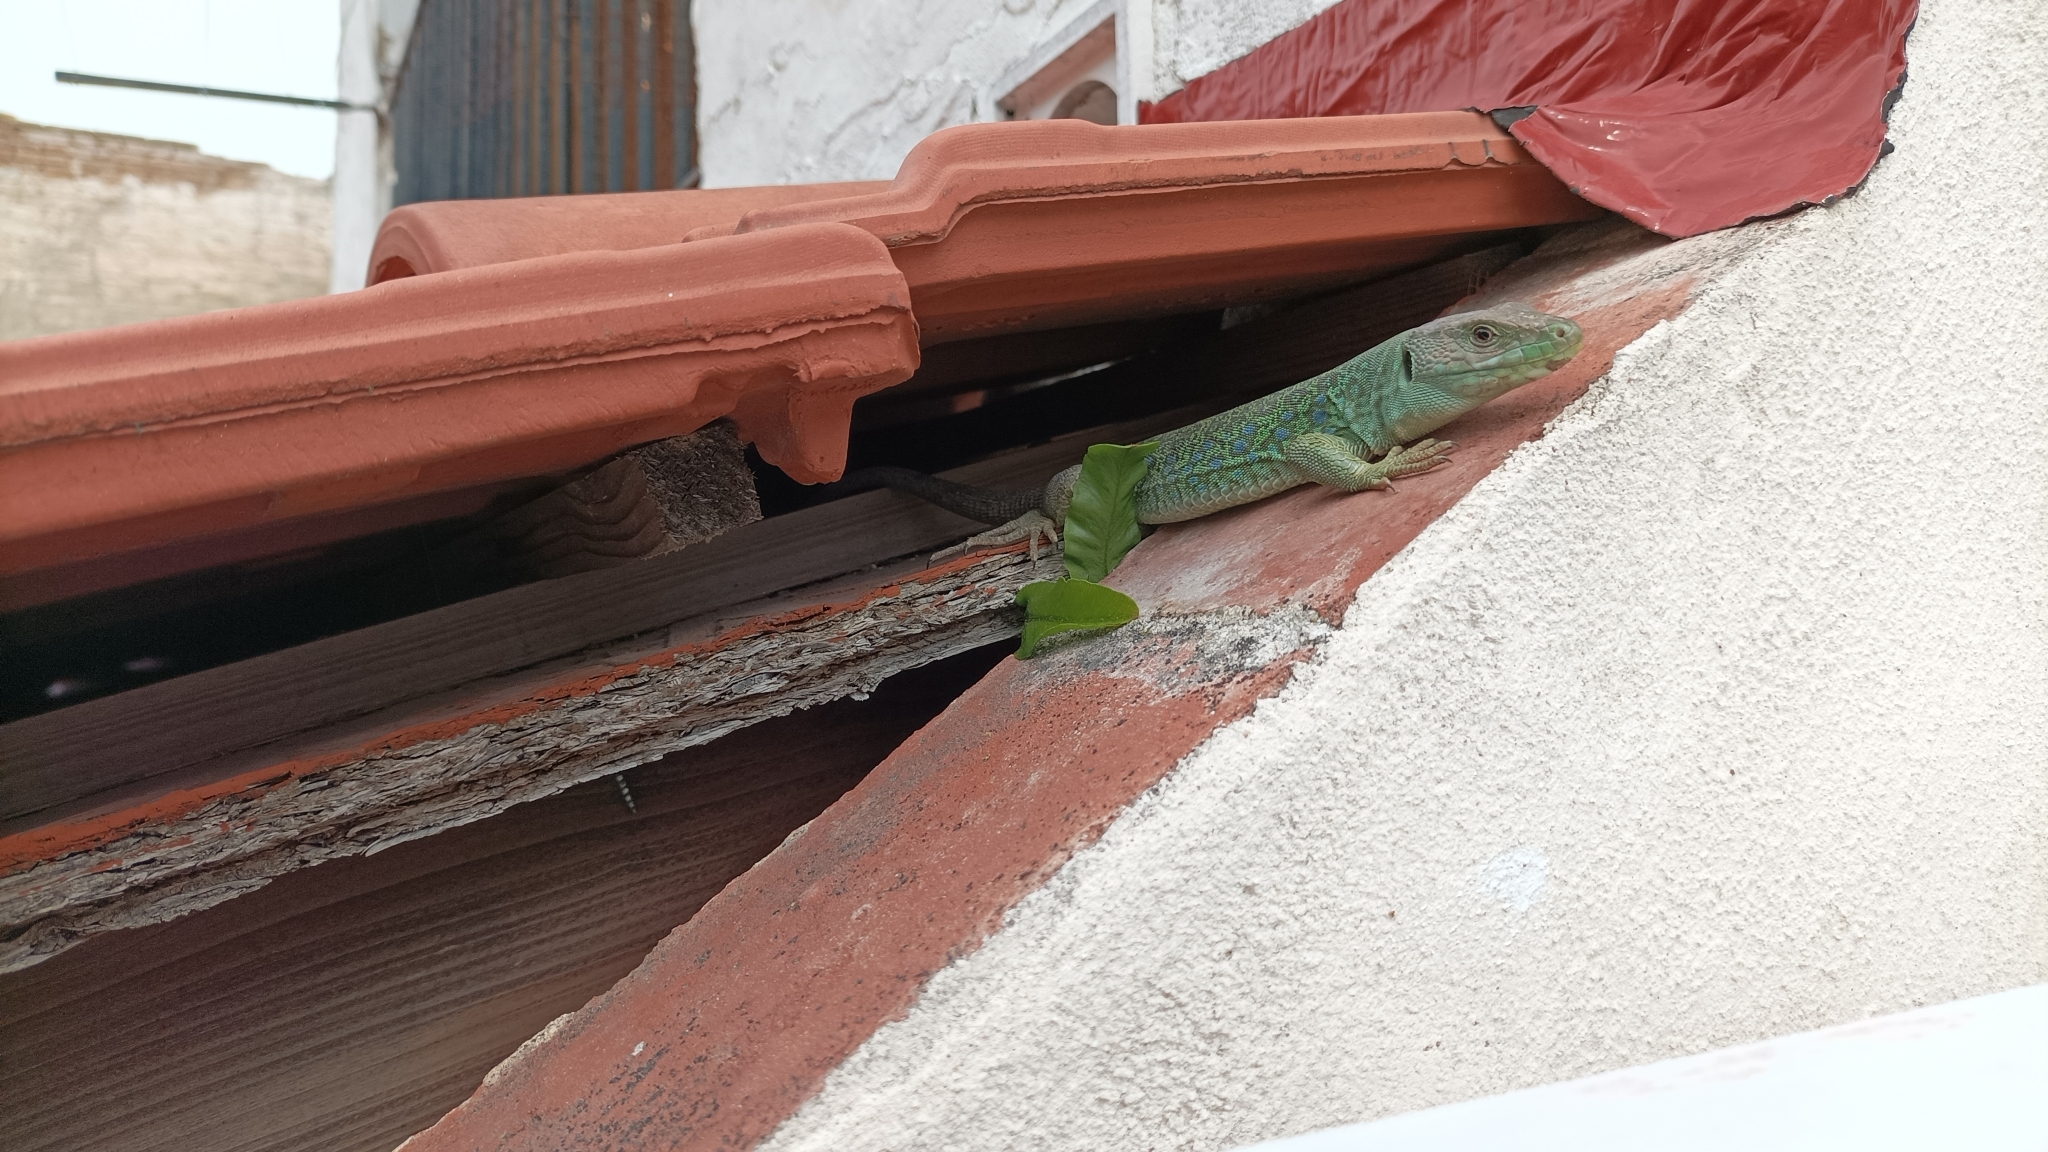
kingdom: Animalia
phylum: Chordata
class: Squamata
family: Lacertidae
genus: Timon
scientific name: Timon lepidus
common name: Ocellated lizard
